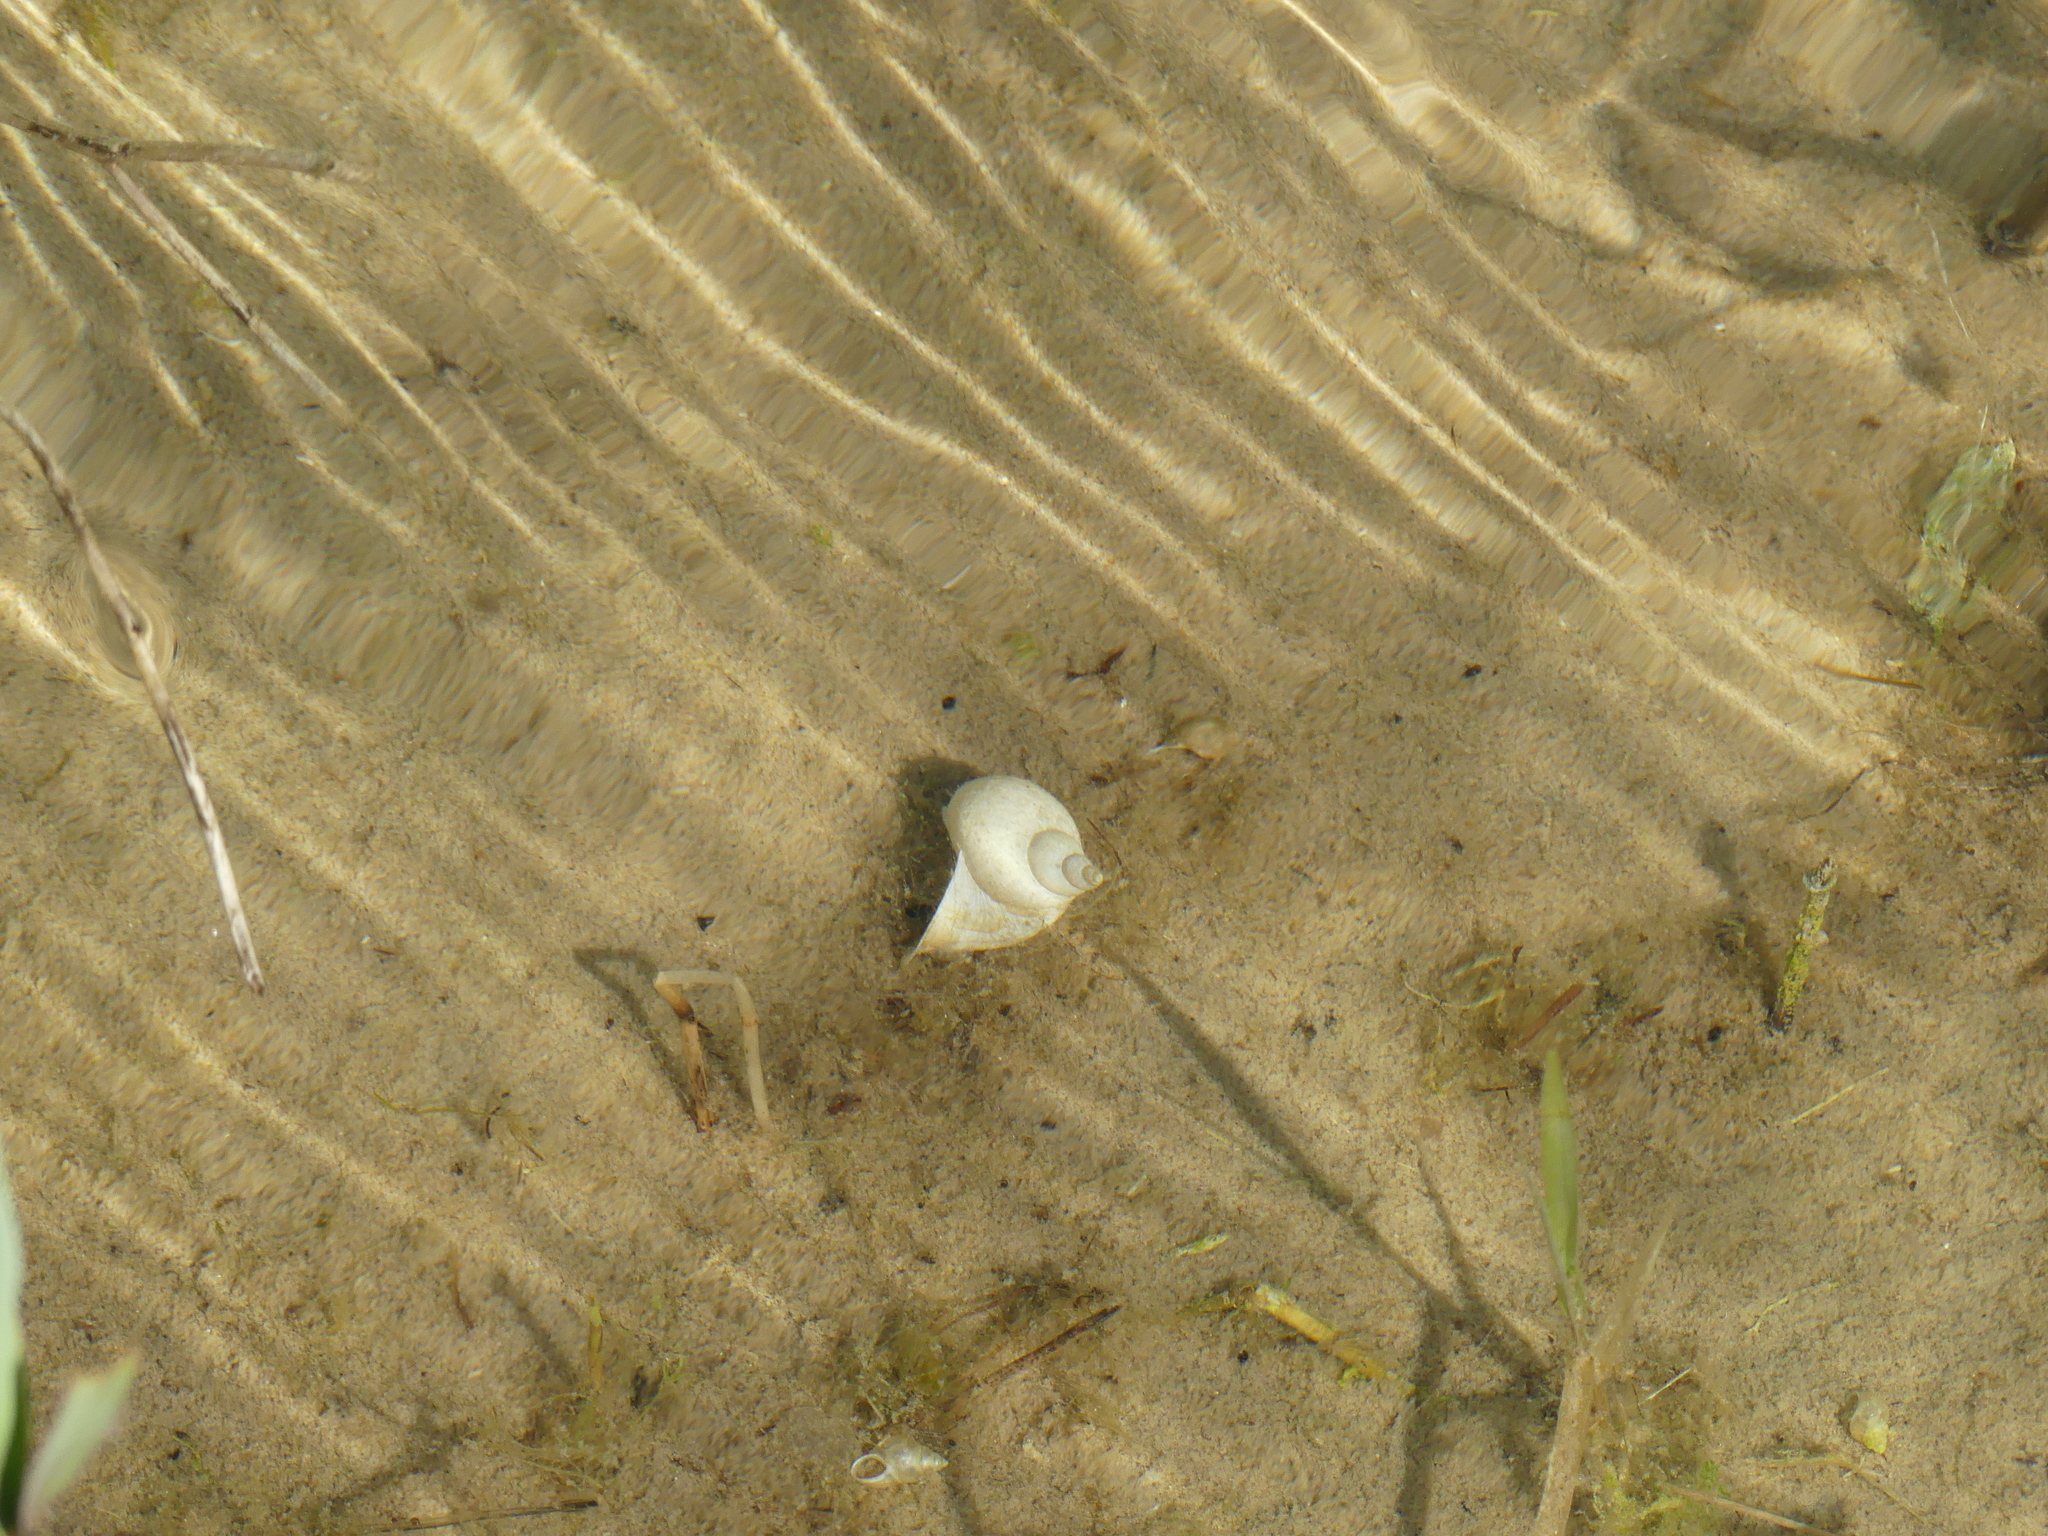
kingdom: Animalia
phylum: Mollusca
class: Gastropoda
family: Lymnaeidae
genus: Lymnaea
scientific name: Lymnaea stagnalis
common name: Great pond snail
